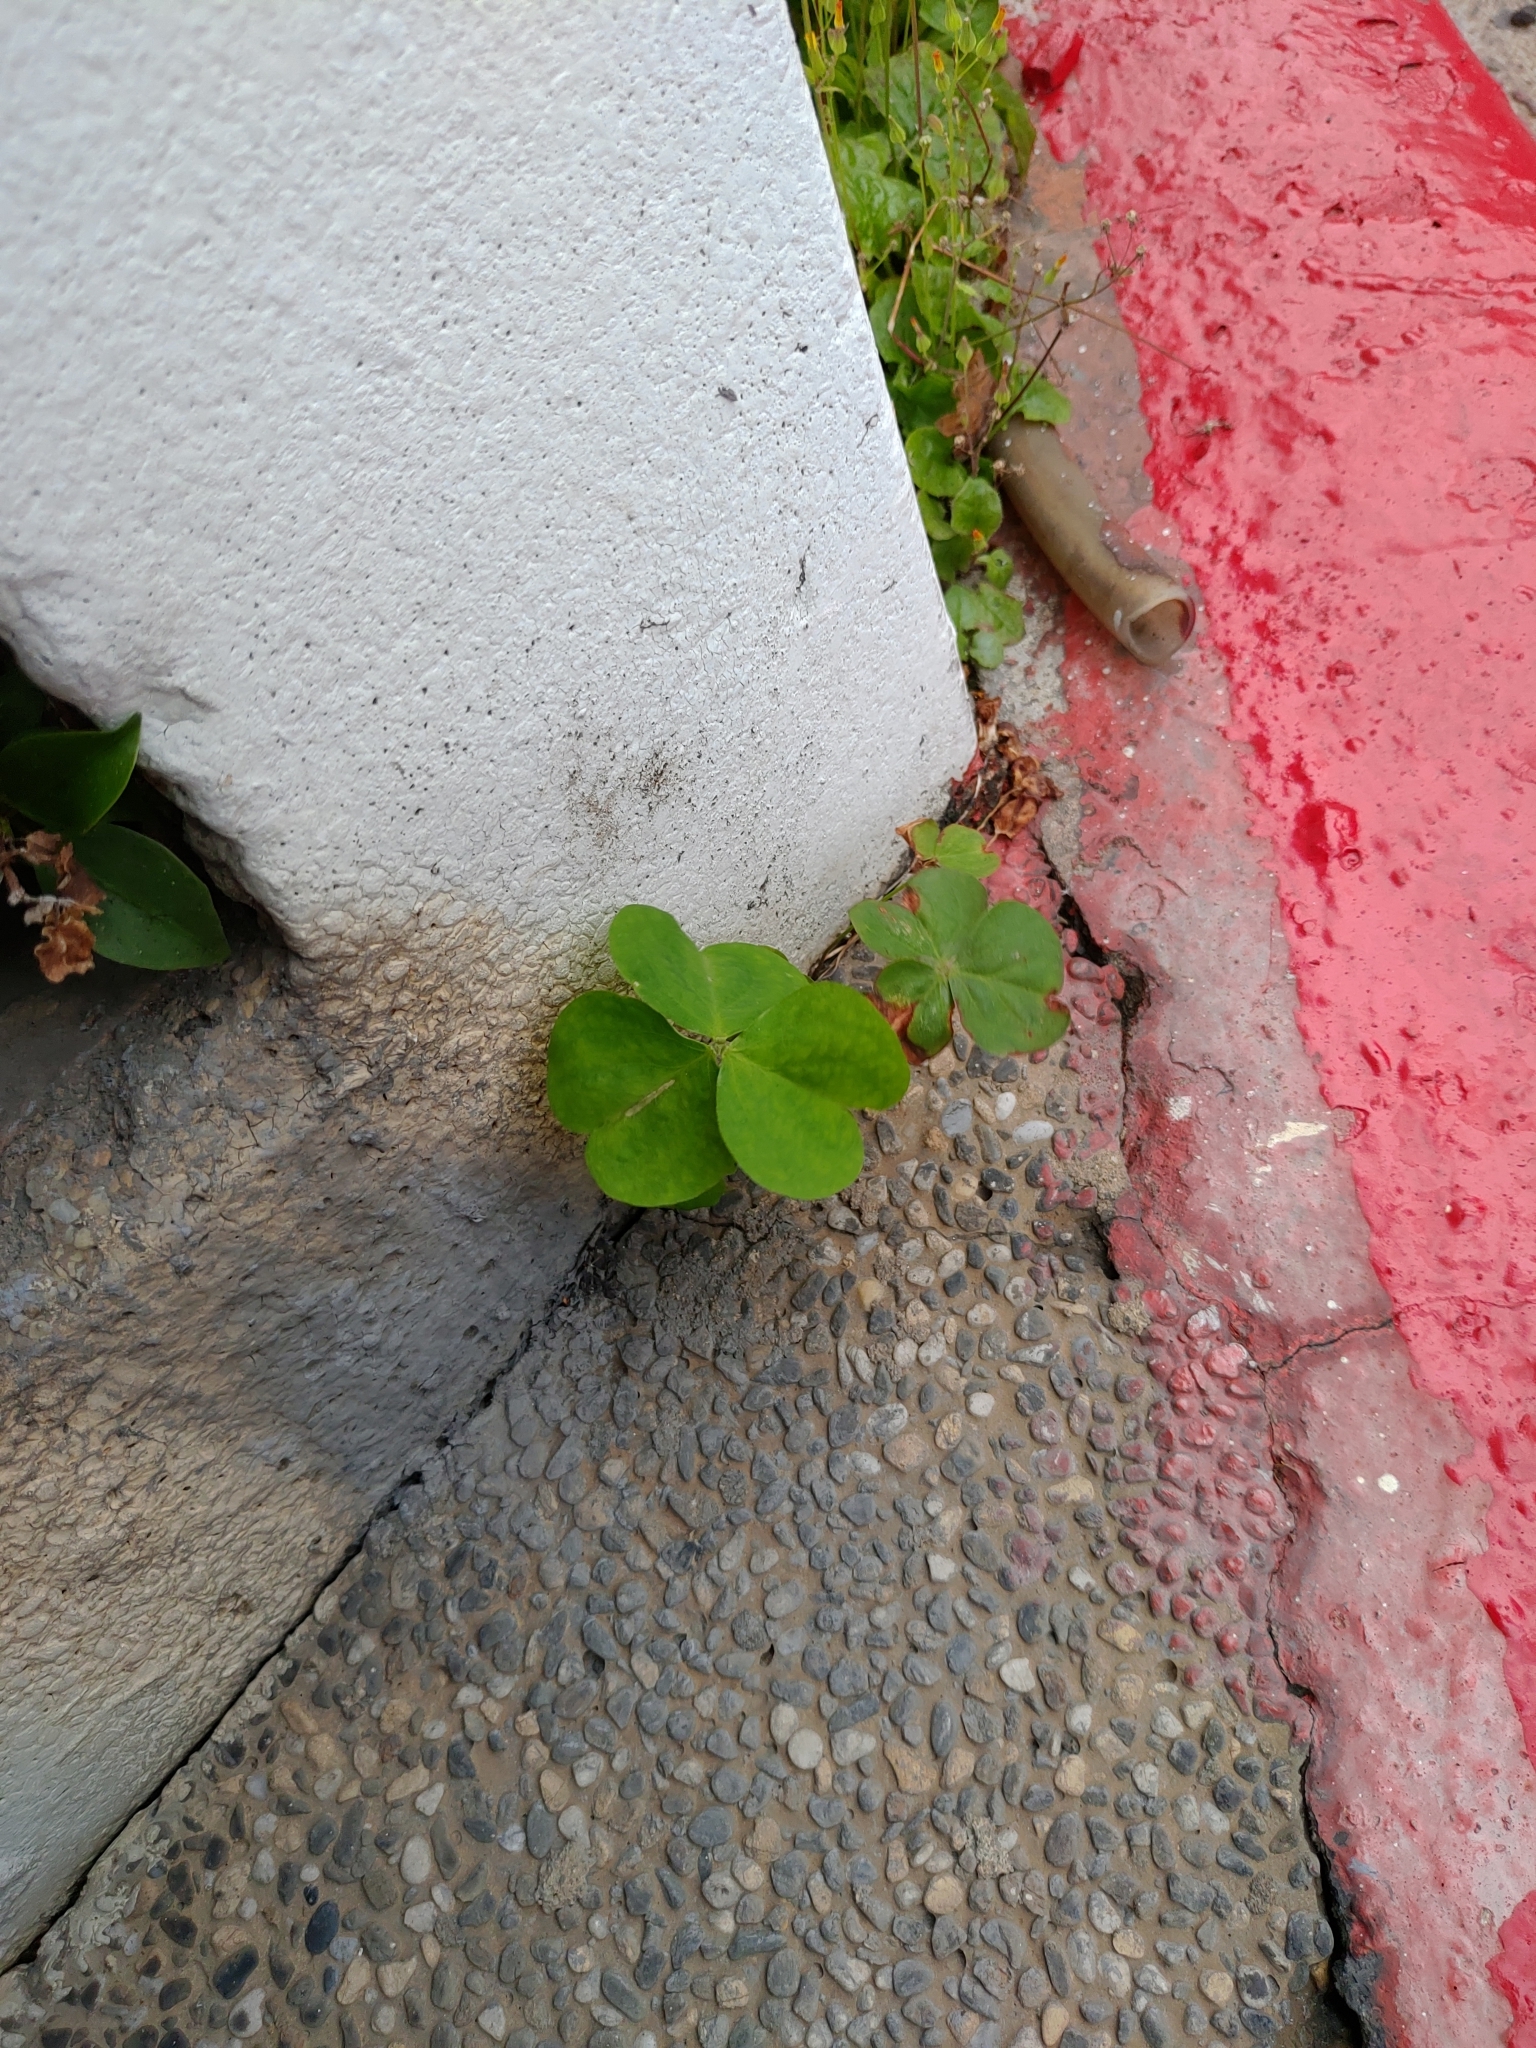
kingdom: Plantae
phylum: Tracheophyta
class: Magnoliopsida
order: Oxalidales
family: Oxalidaceae
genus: Oxalis
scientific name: Oxalis debilis
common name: Large-flowered pink-sorrel
